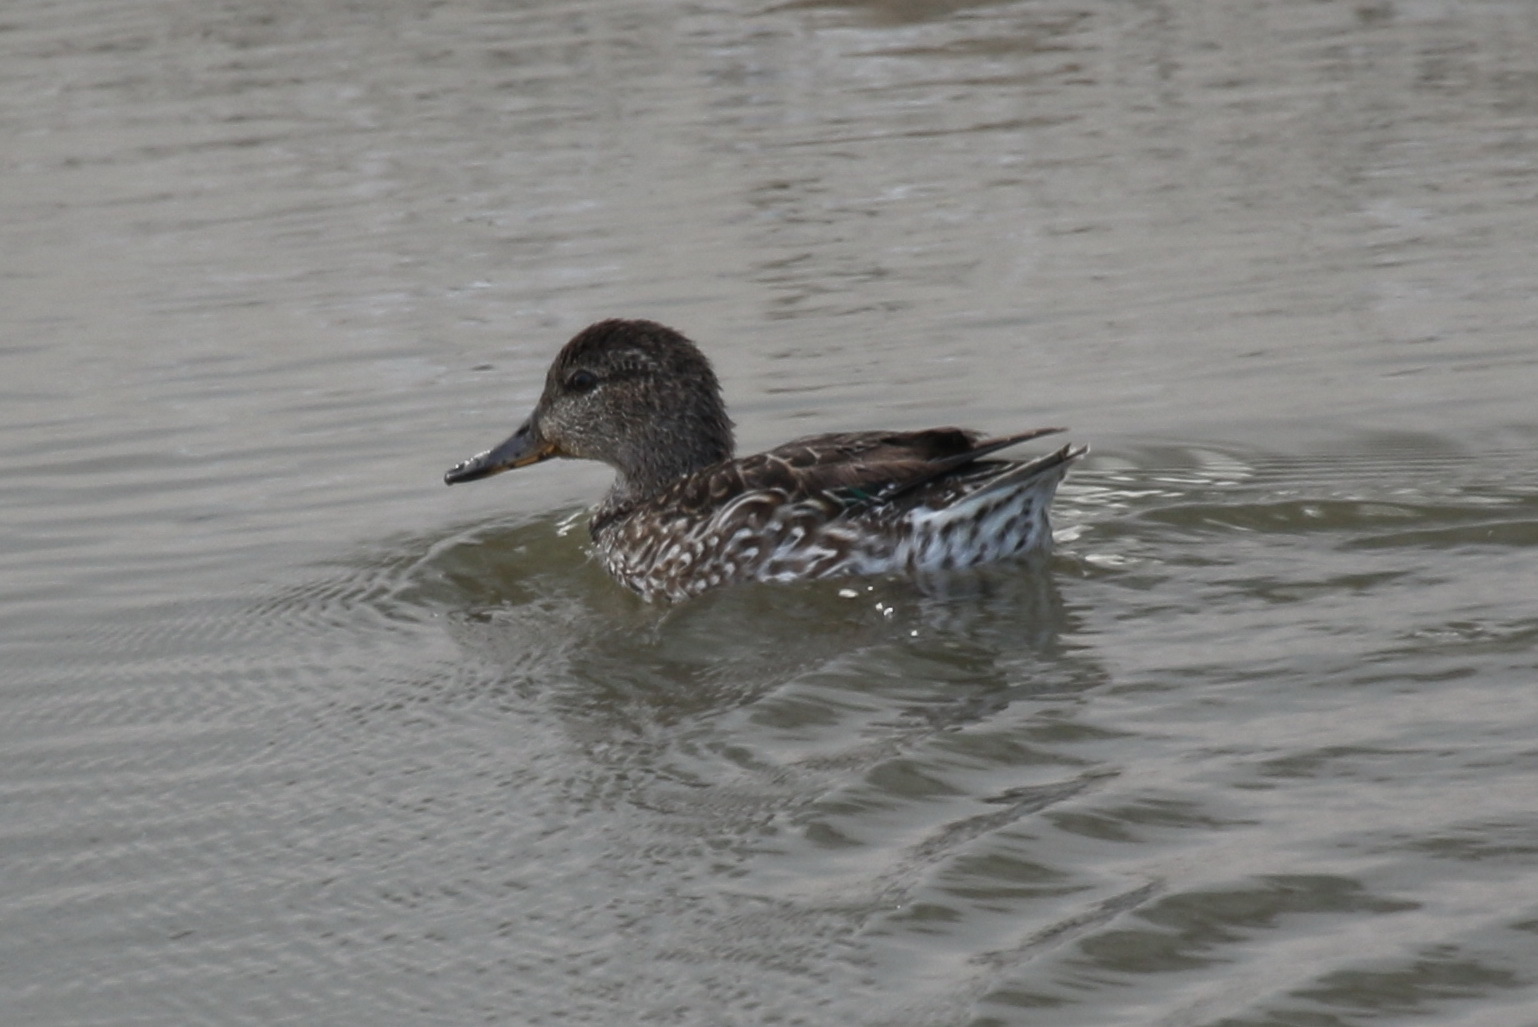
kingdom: Animalia
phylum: Chordata
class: Aves
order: Anseriformes
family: Anatidae
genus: Anas
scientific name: Anas crecca
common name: Eurasian teal
